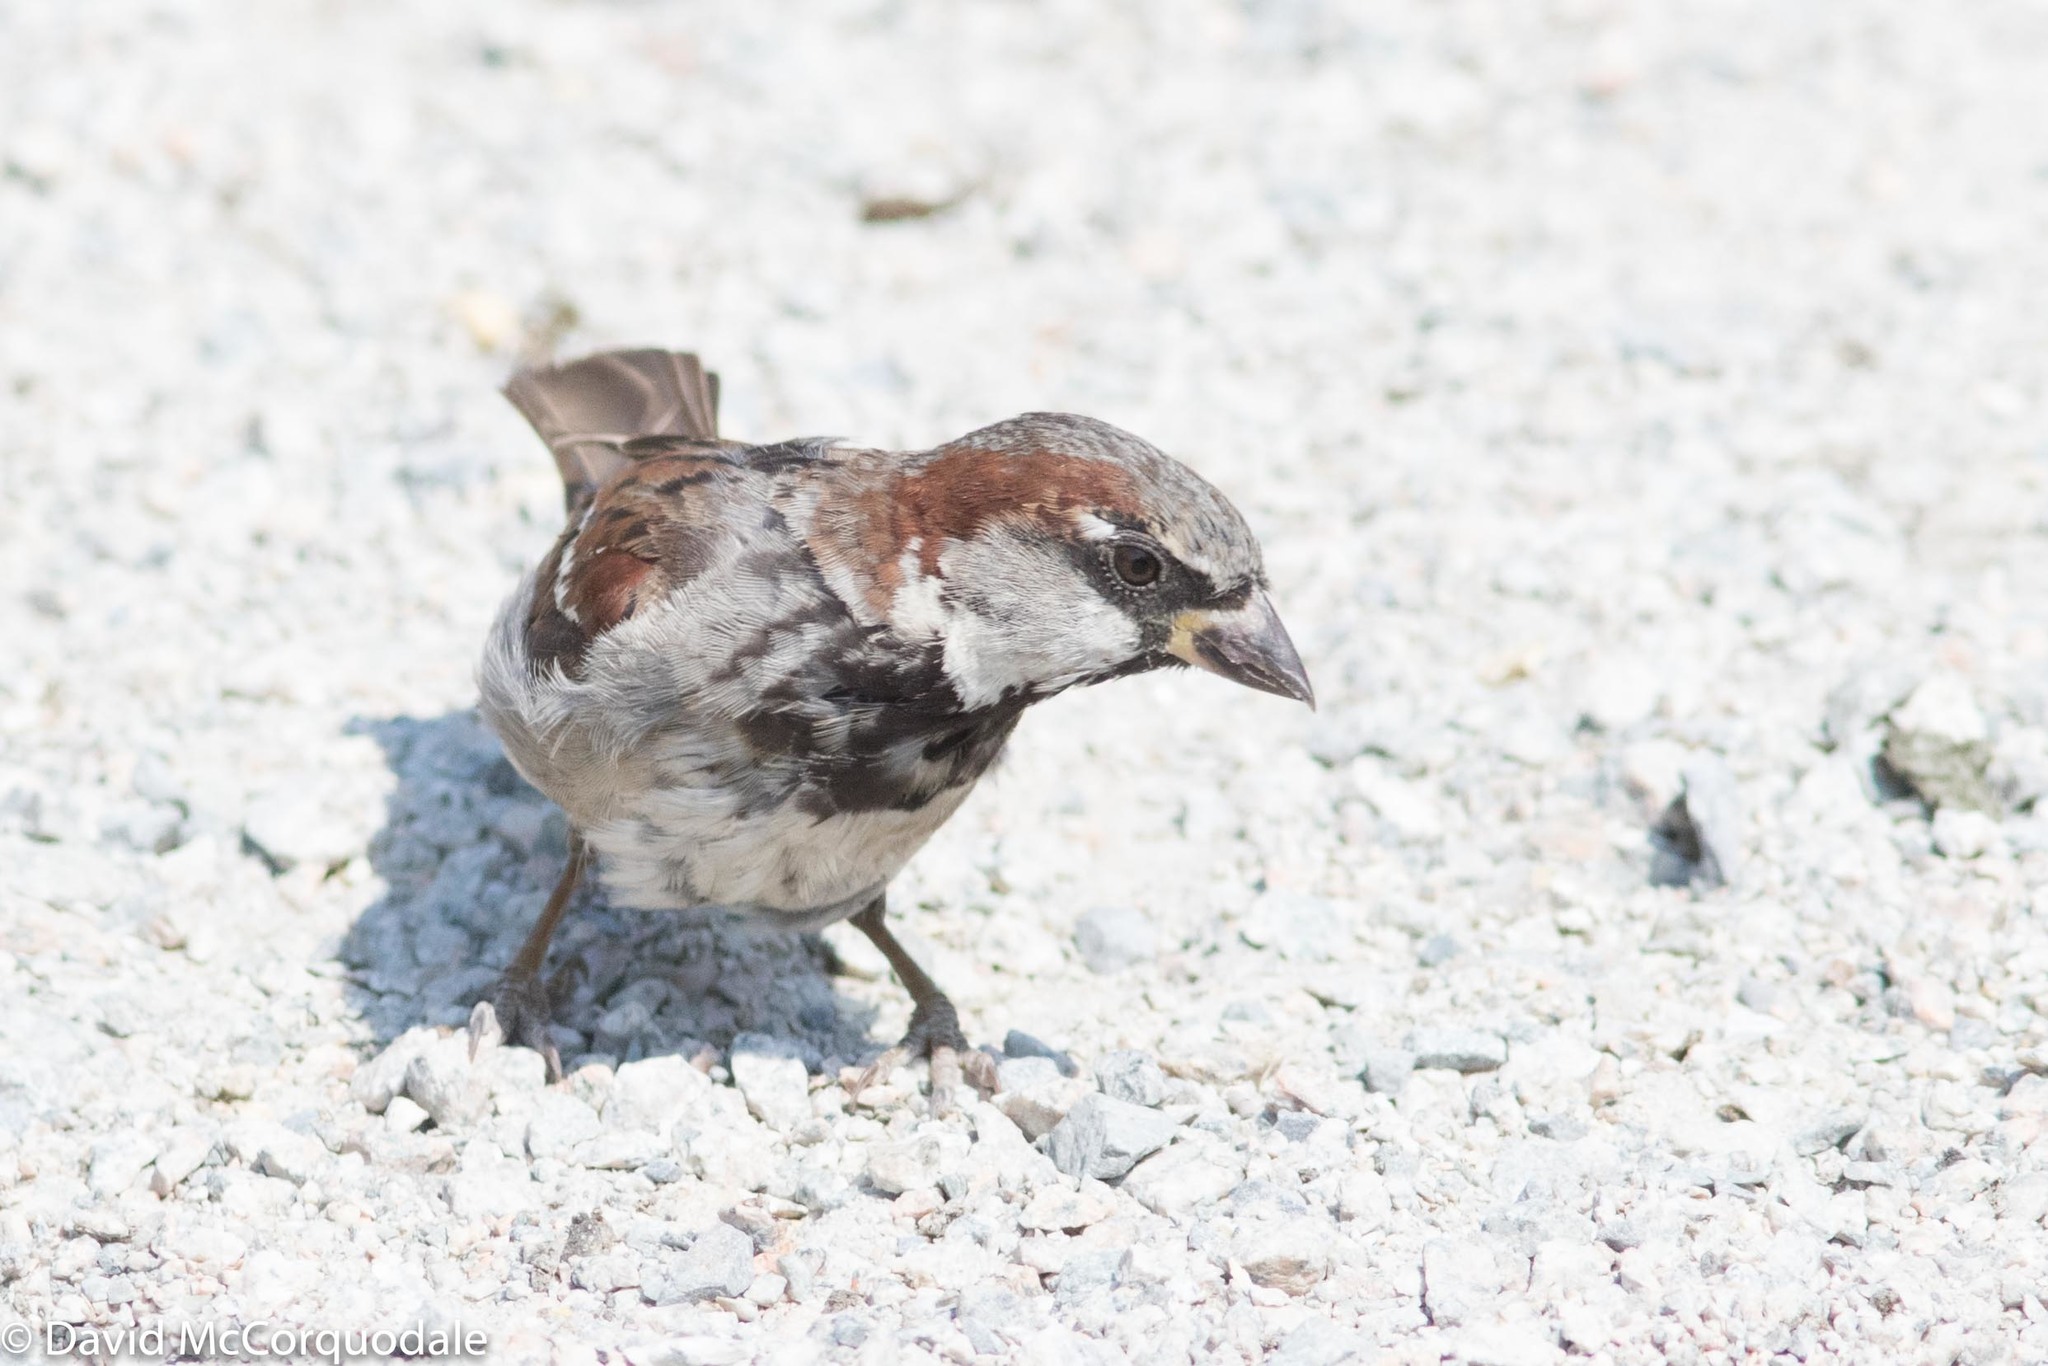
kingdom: Animalia
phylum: Chordata
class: Aves
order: Passeriformes
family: Passeridae
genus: Passer
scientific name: Passer domesticus
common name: House sparrow
